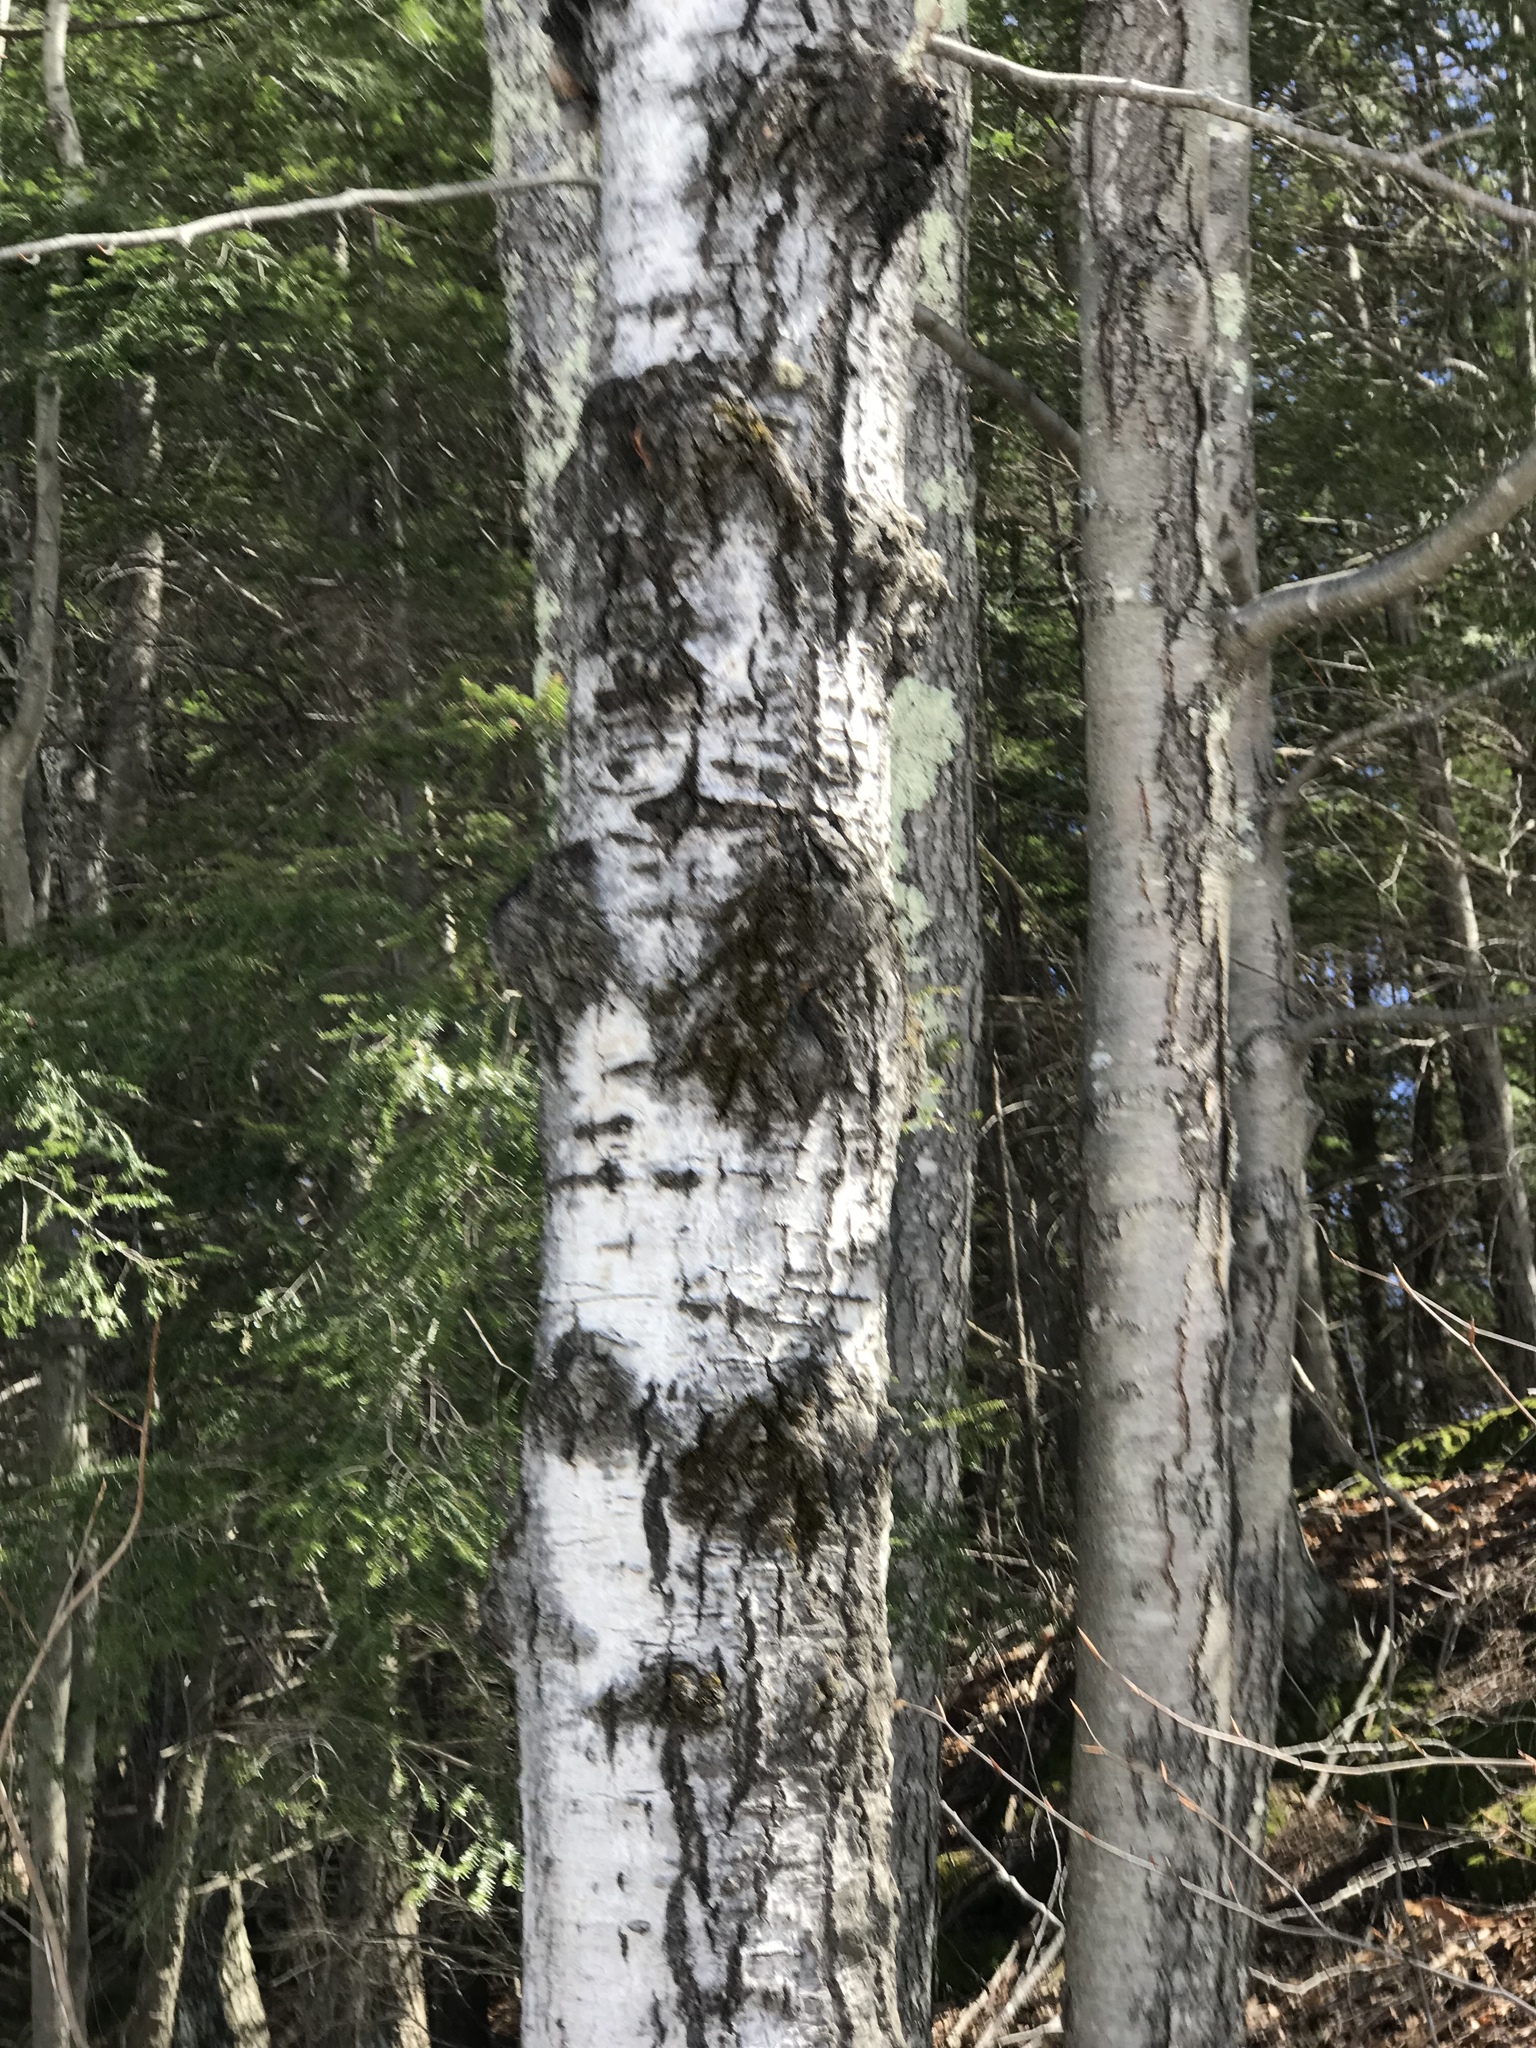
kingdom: Plantae
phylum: Tracheophyta
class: Magnoliopsida
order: Malpighiales
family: Salicaceae
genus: Populus
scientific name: Populus tremuloides
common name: Quaking aspen
